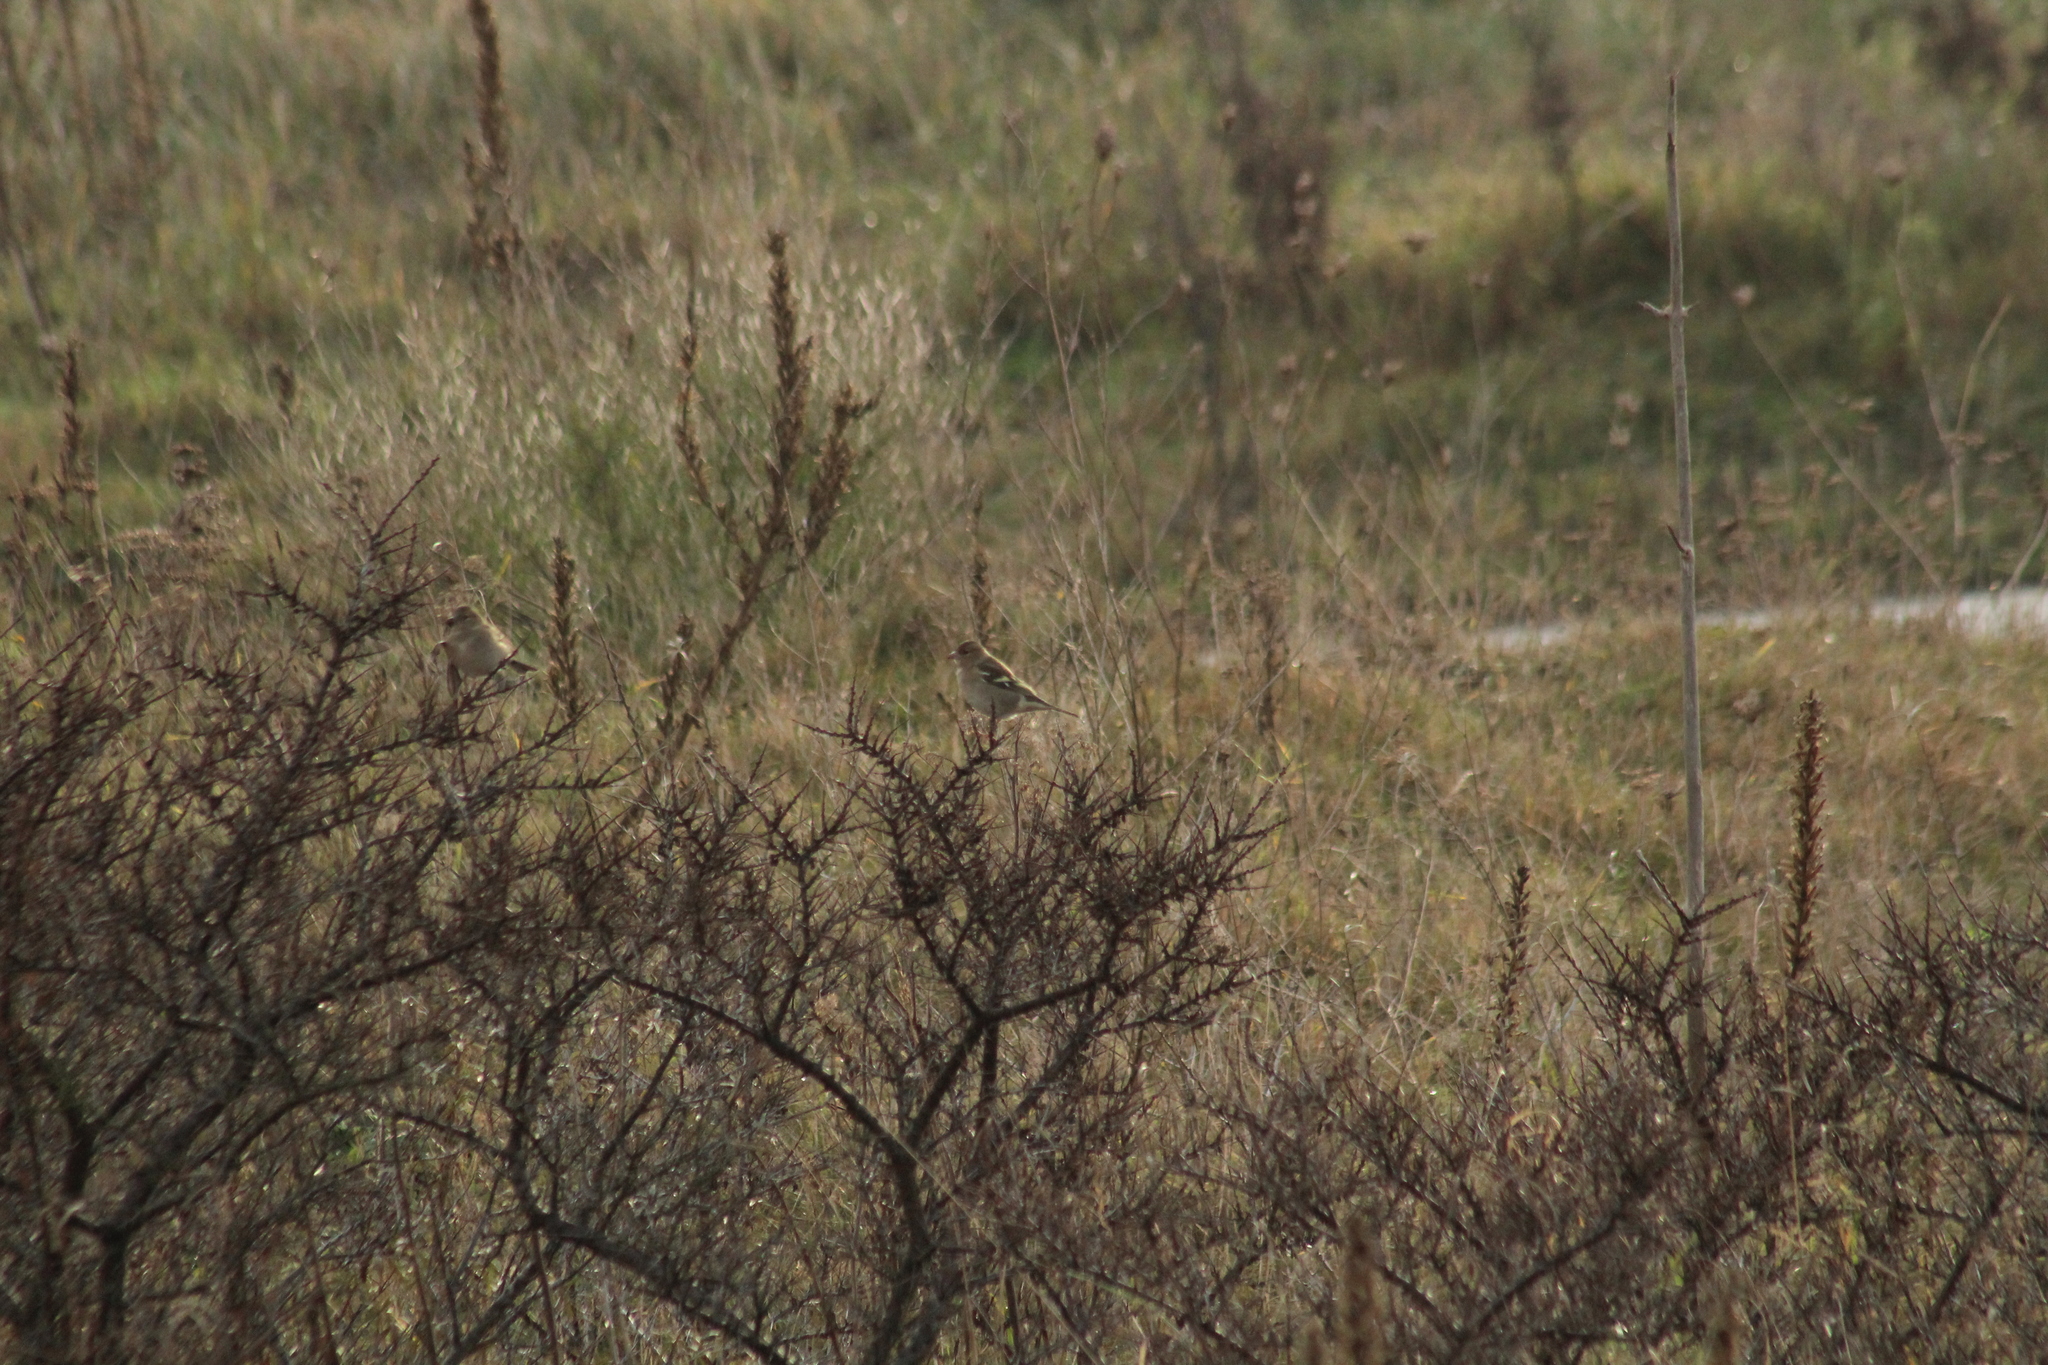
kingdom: Animalia
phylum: Chordata
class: Aves
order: Passeriformes
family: Fringillidae
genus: Fringilla
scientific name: Fringilla coelebs
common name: Common chaffinch
